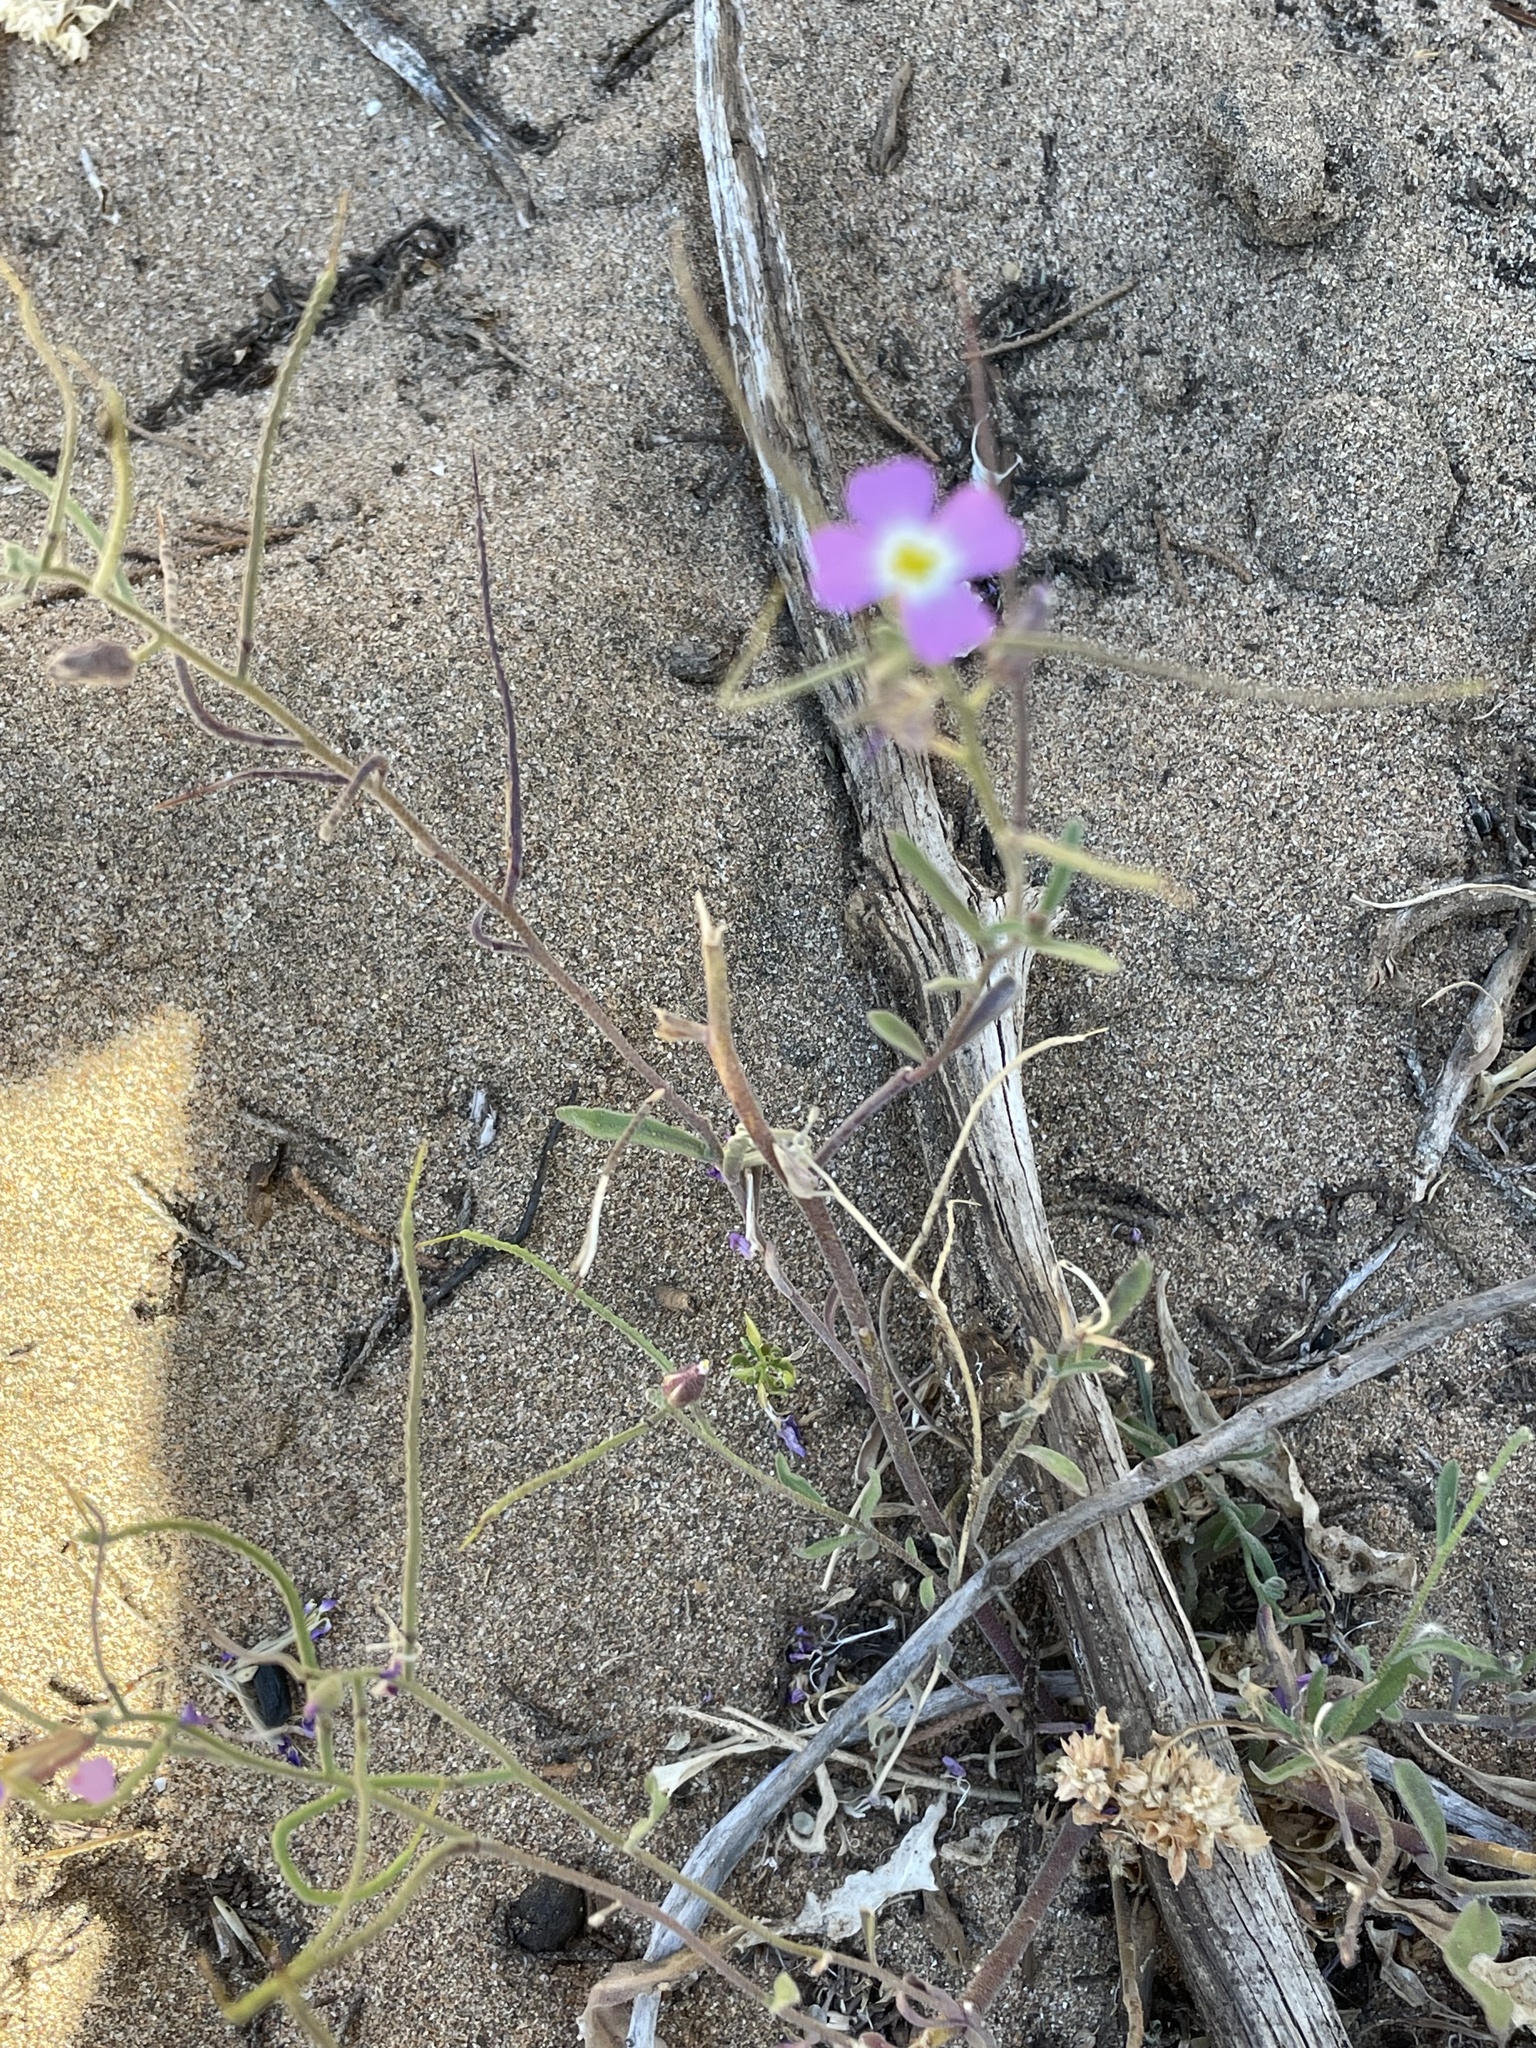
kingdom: Plantae
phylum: Tracheophyta
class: Magnoliopsida
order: Brassicales
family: Brassicaceae
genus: Marcuskochia
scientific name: Marcuskochia triloba
